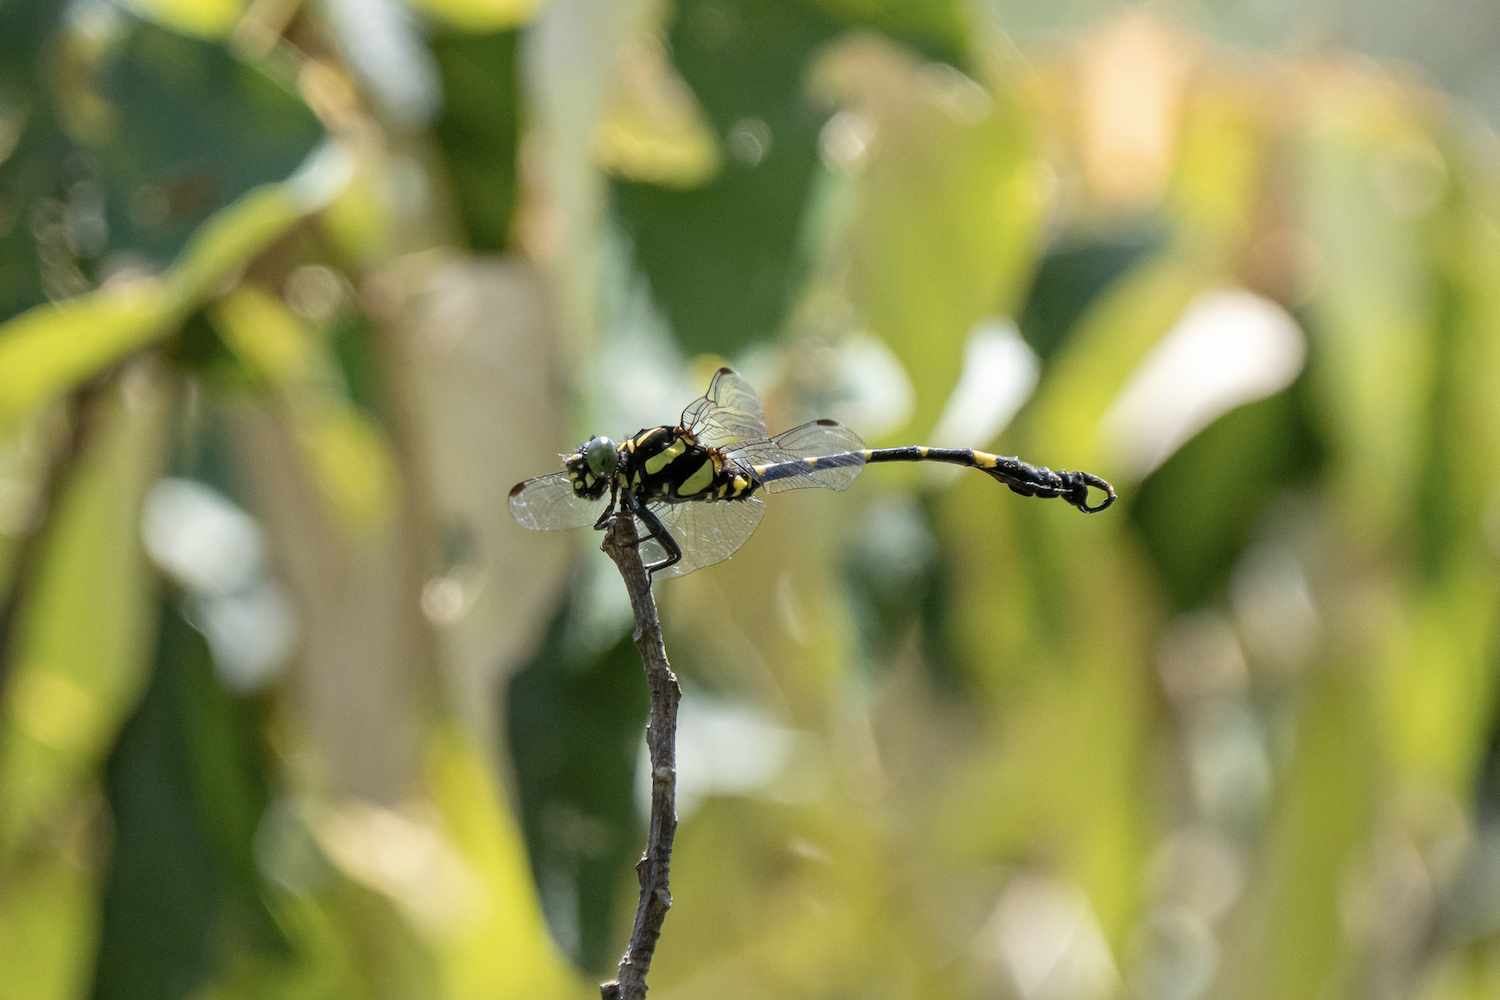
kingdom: Animalia
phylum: Arthropoda
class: Insecta
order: Odonata
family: Gomphidae
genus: Lamelligomphus
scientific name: Lamelligomphus hainanensis
